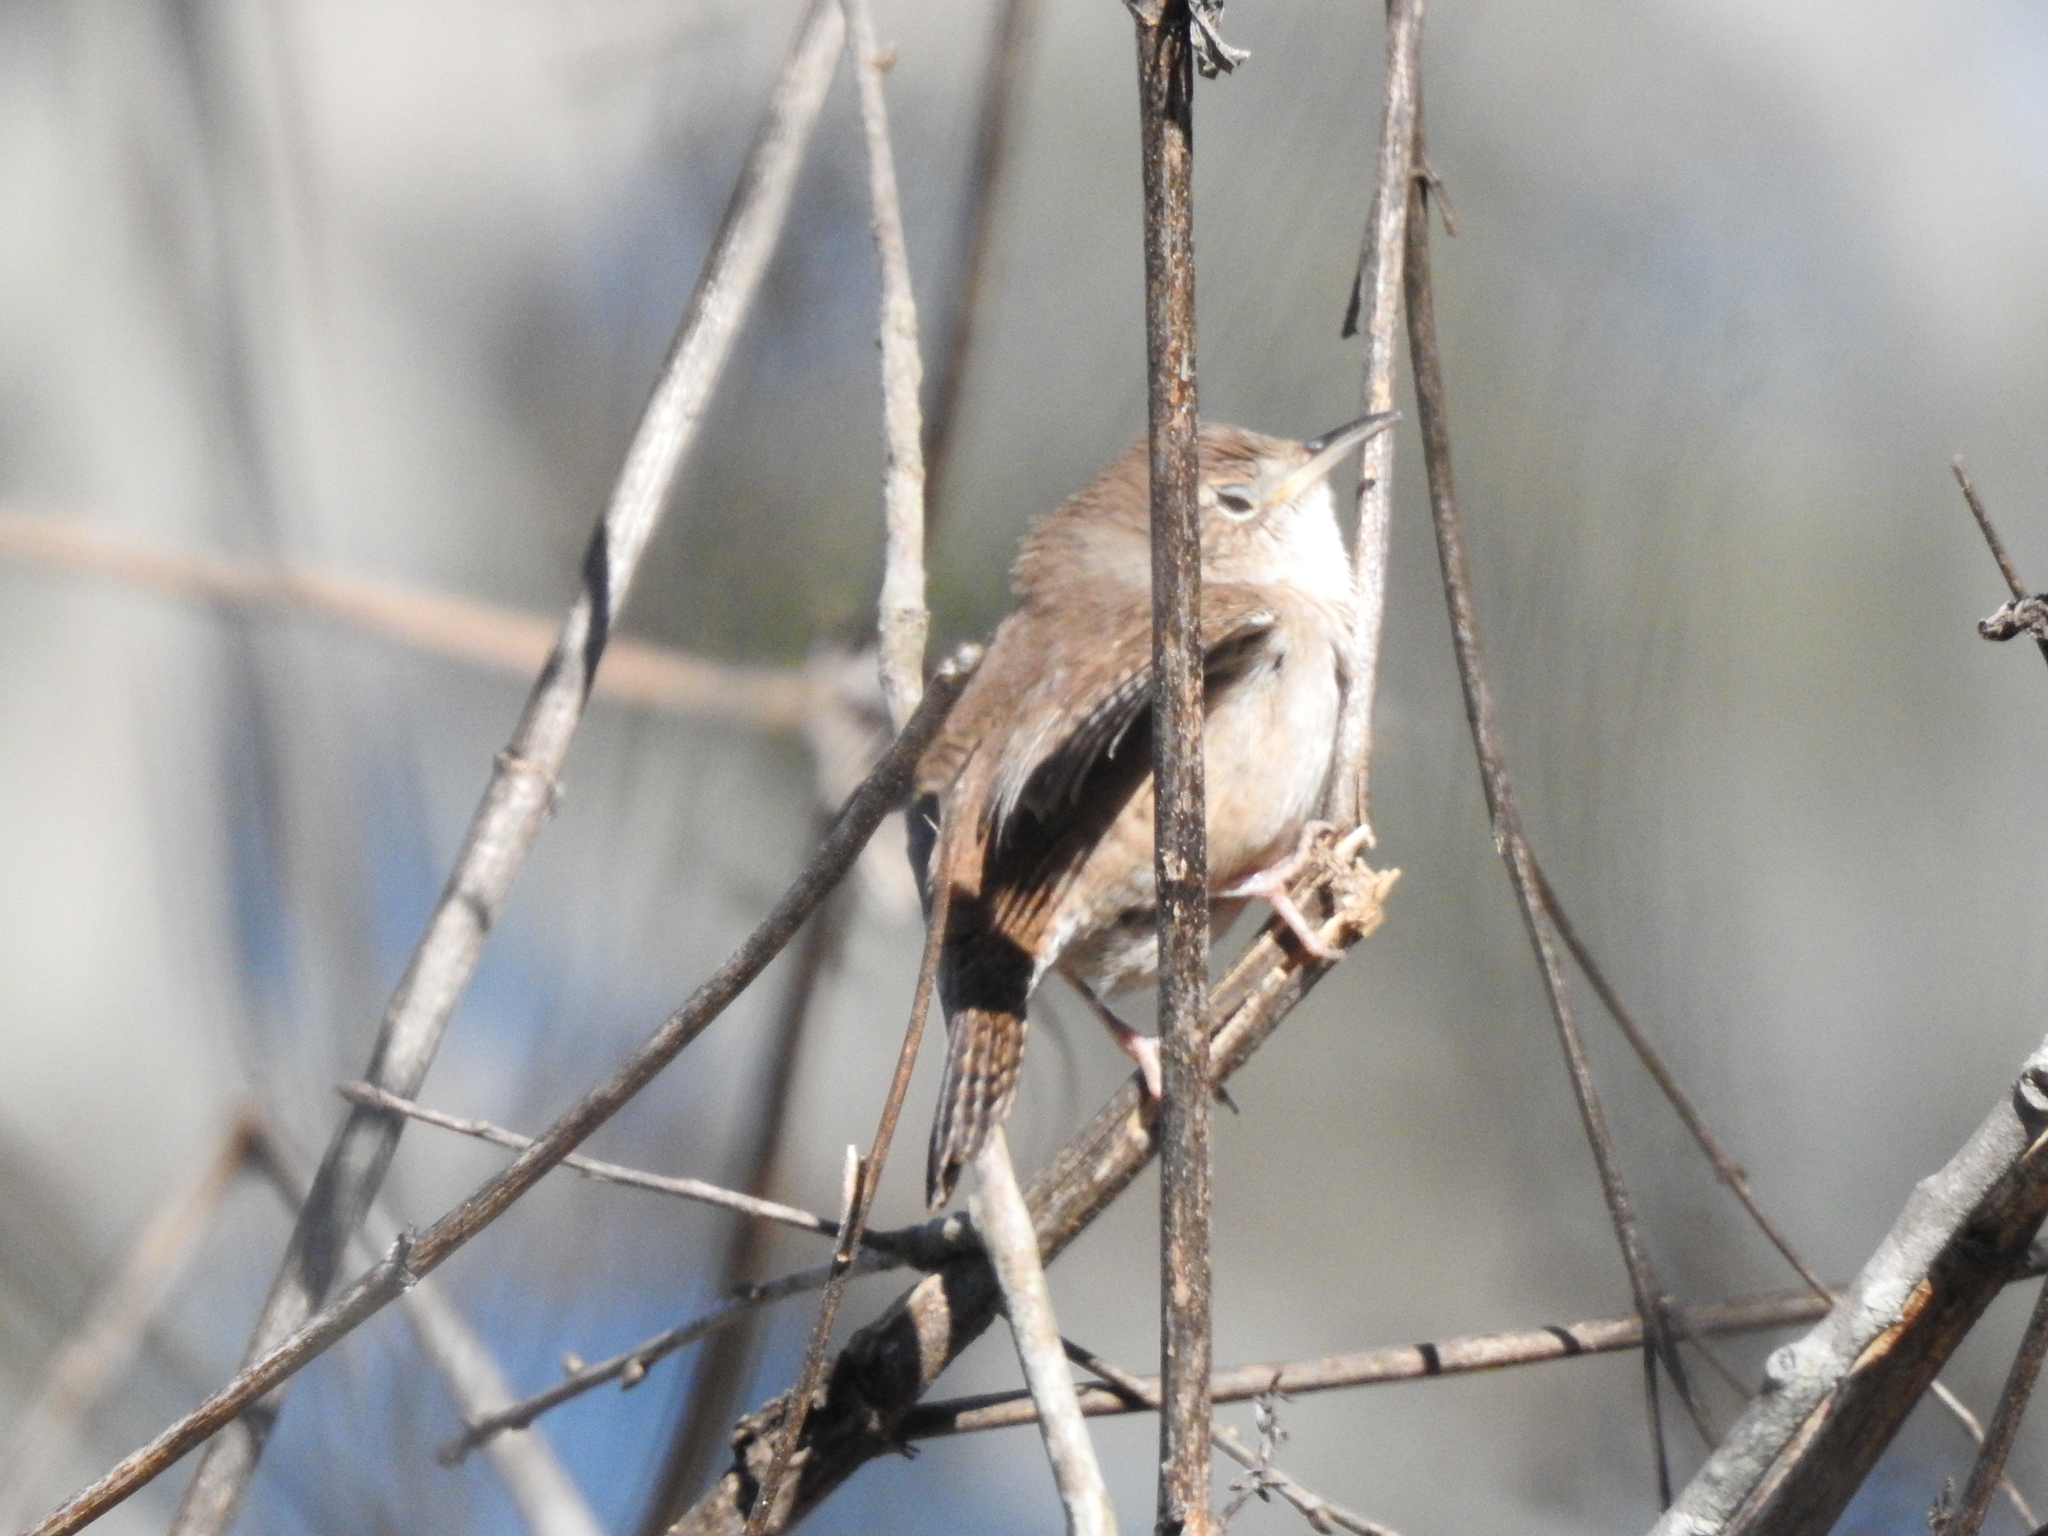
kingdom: Animalia
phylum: Chordata
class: Aves
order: Passeriformes
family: Troglodytidae
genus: Troglodytes
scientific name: Troglodytes aedon
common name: House wren
